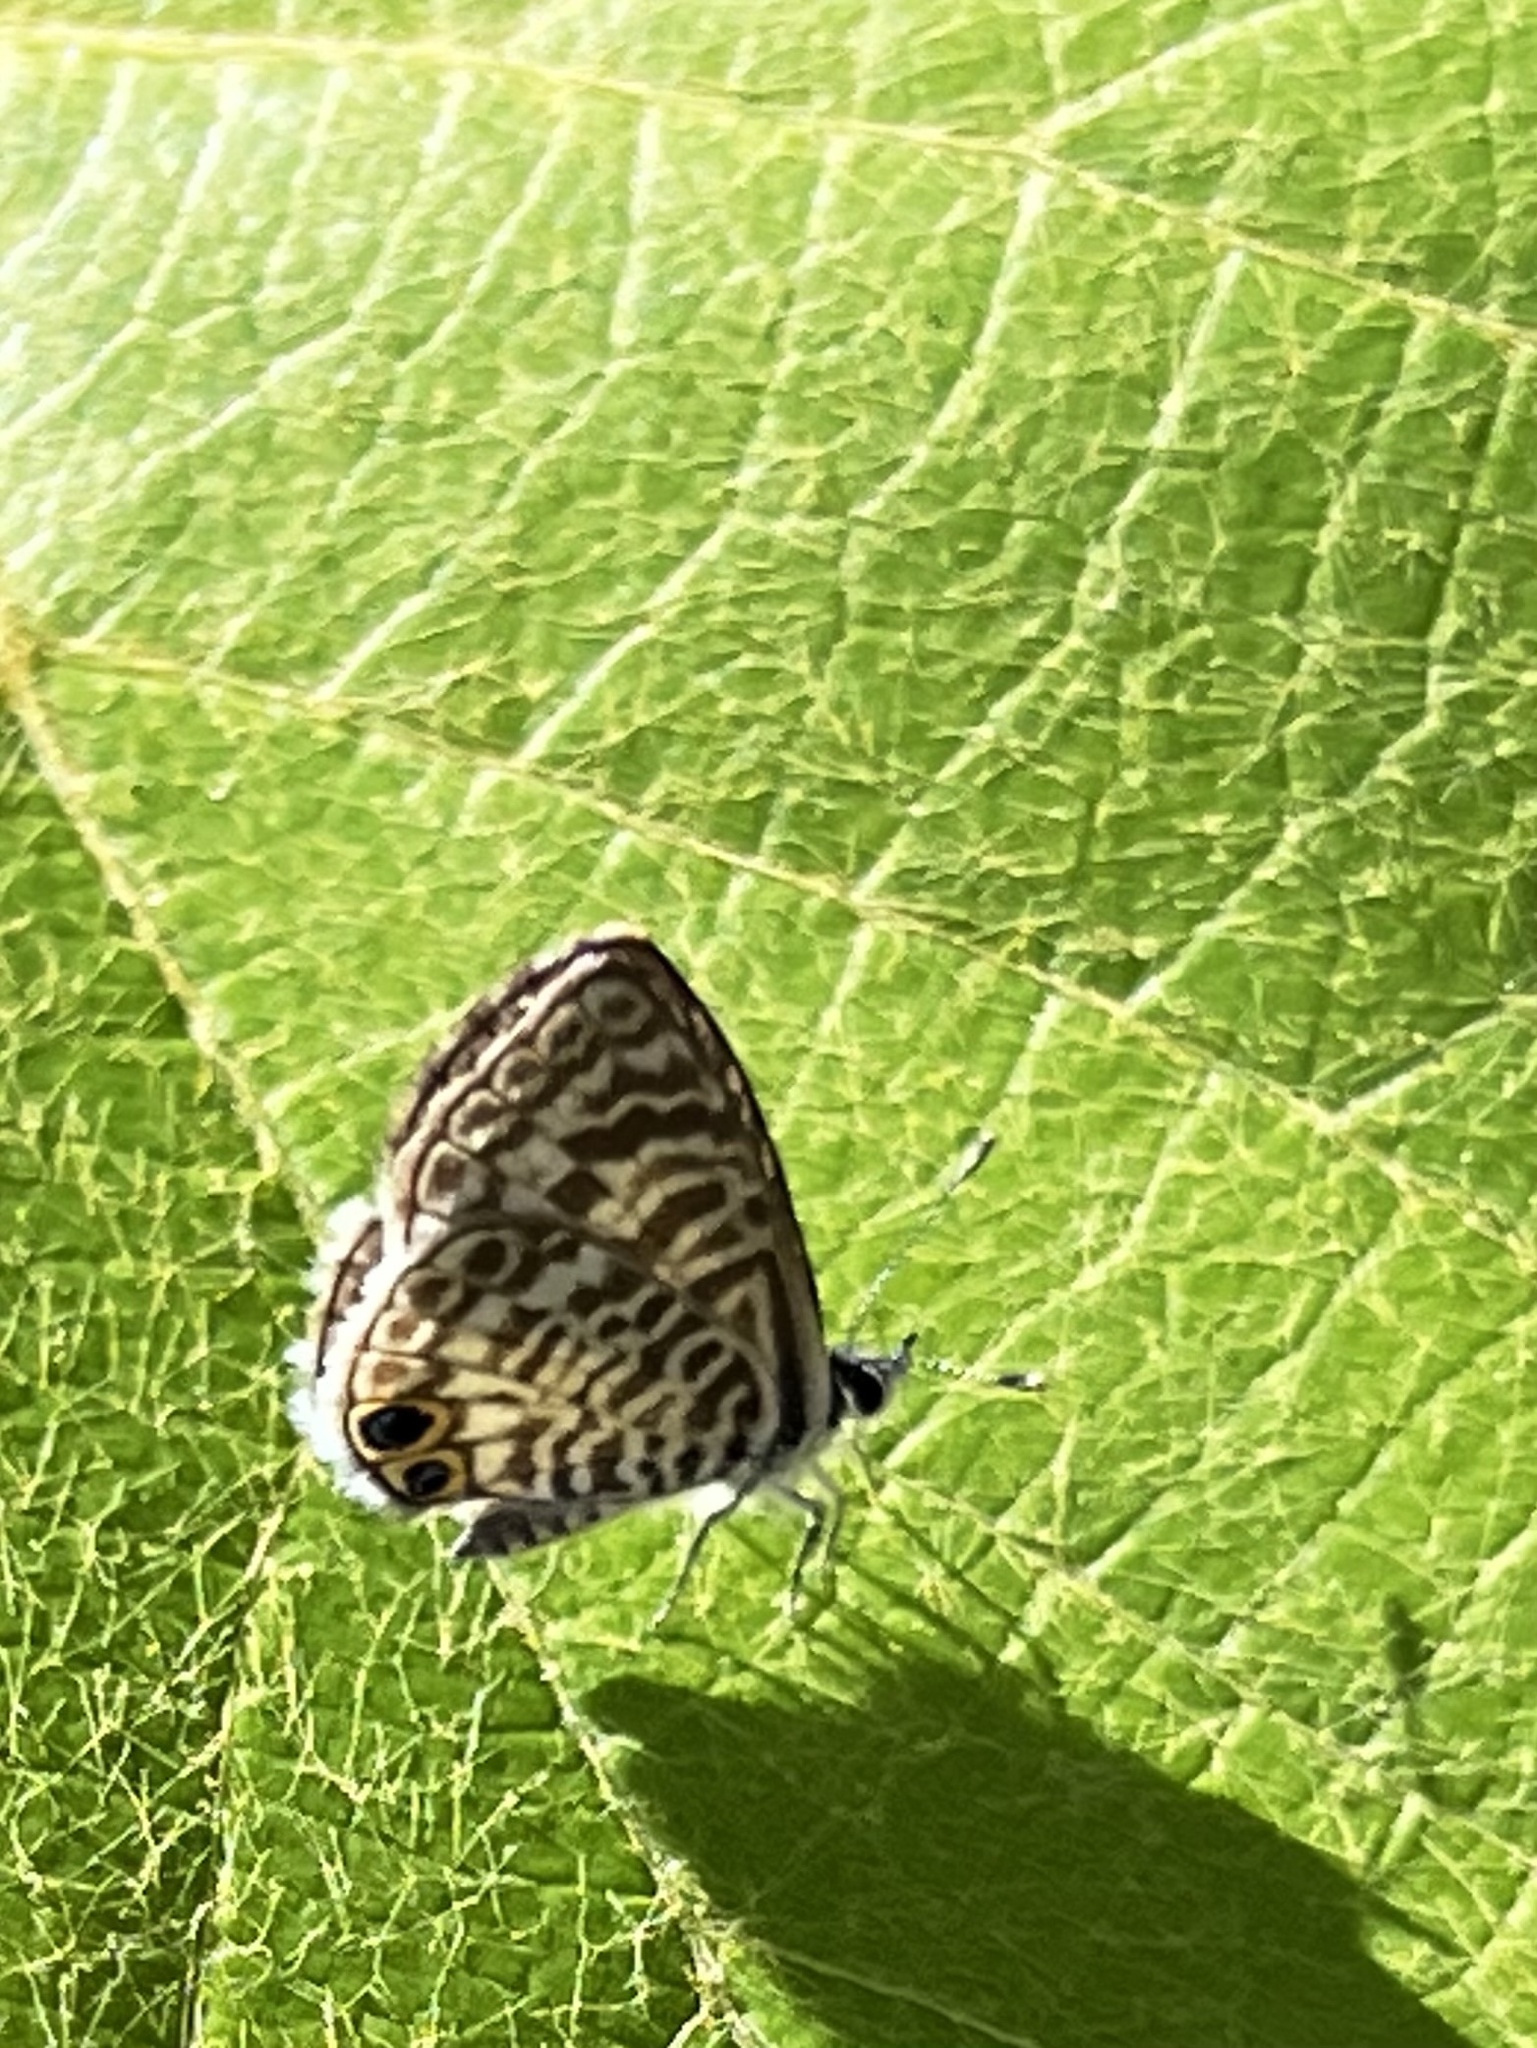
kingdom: Animalia
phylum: Arthropoda
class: Insecta
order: Lepidoptera
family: Lycaenidae
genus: Leptotes
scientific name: Leptotes cassius
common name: Cassius blue
